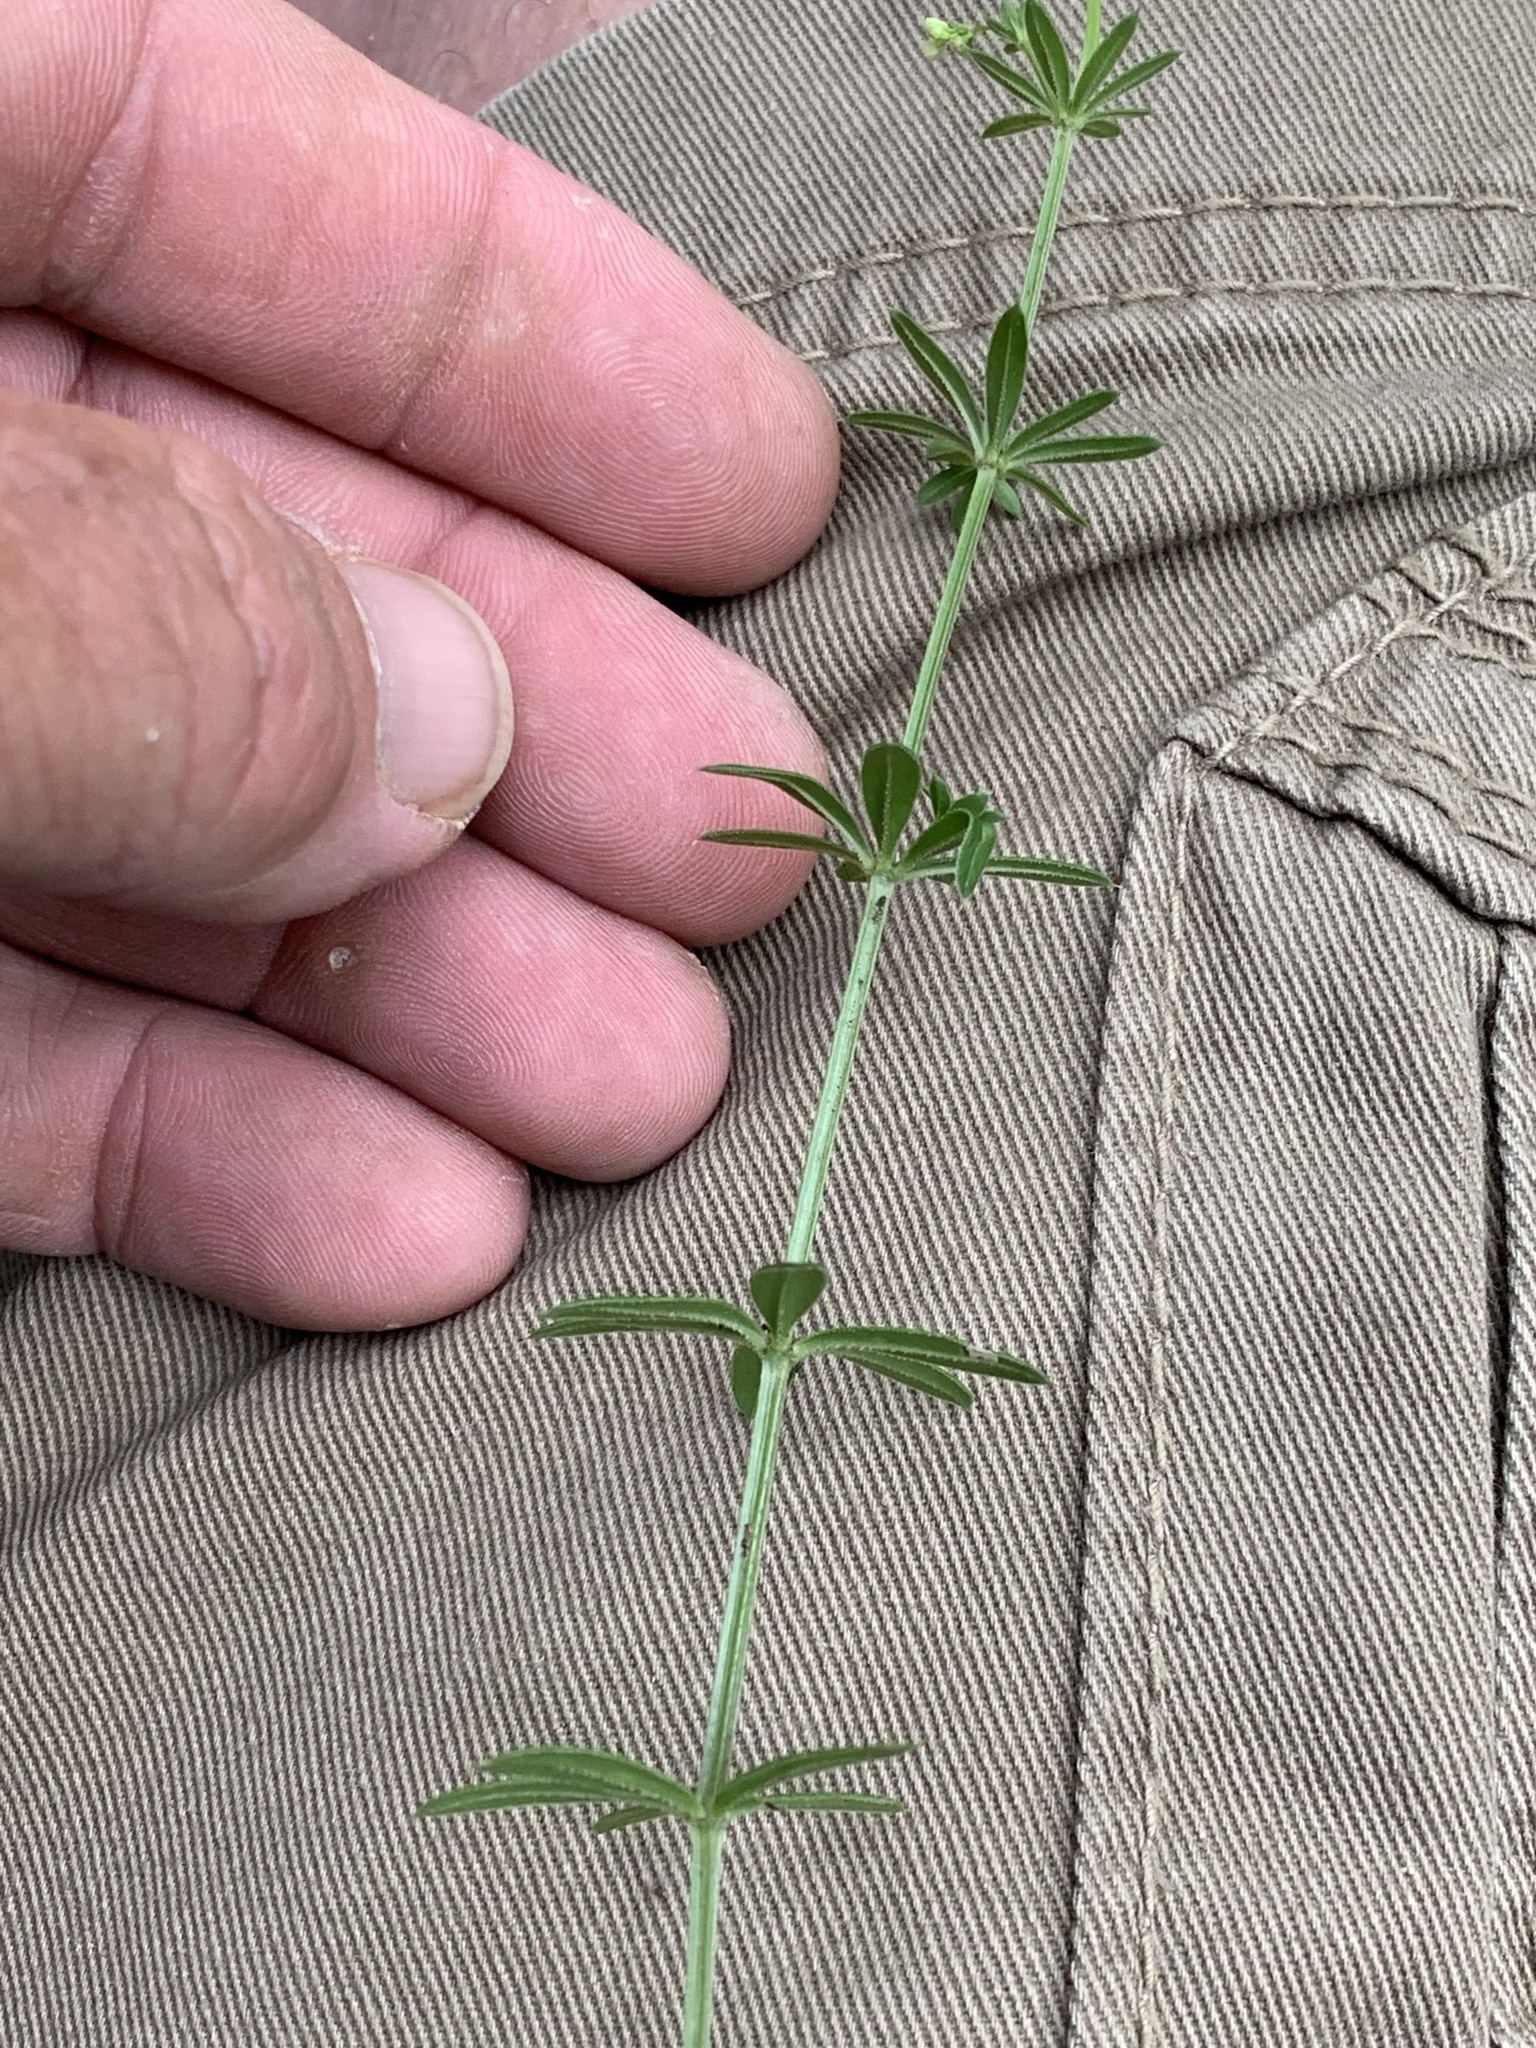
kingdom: Plantae
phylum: Tracheophyta
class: Magnoliopsida
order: Gentianales
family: Rubiaceae
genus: Galium
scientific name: Galium mexicanum
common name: Mexican bedstraw
